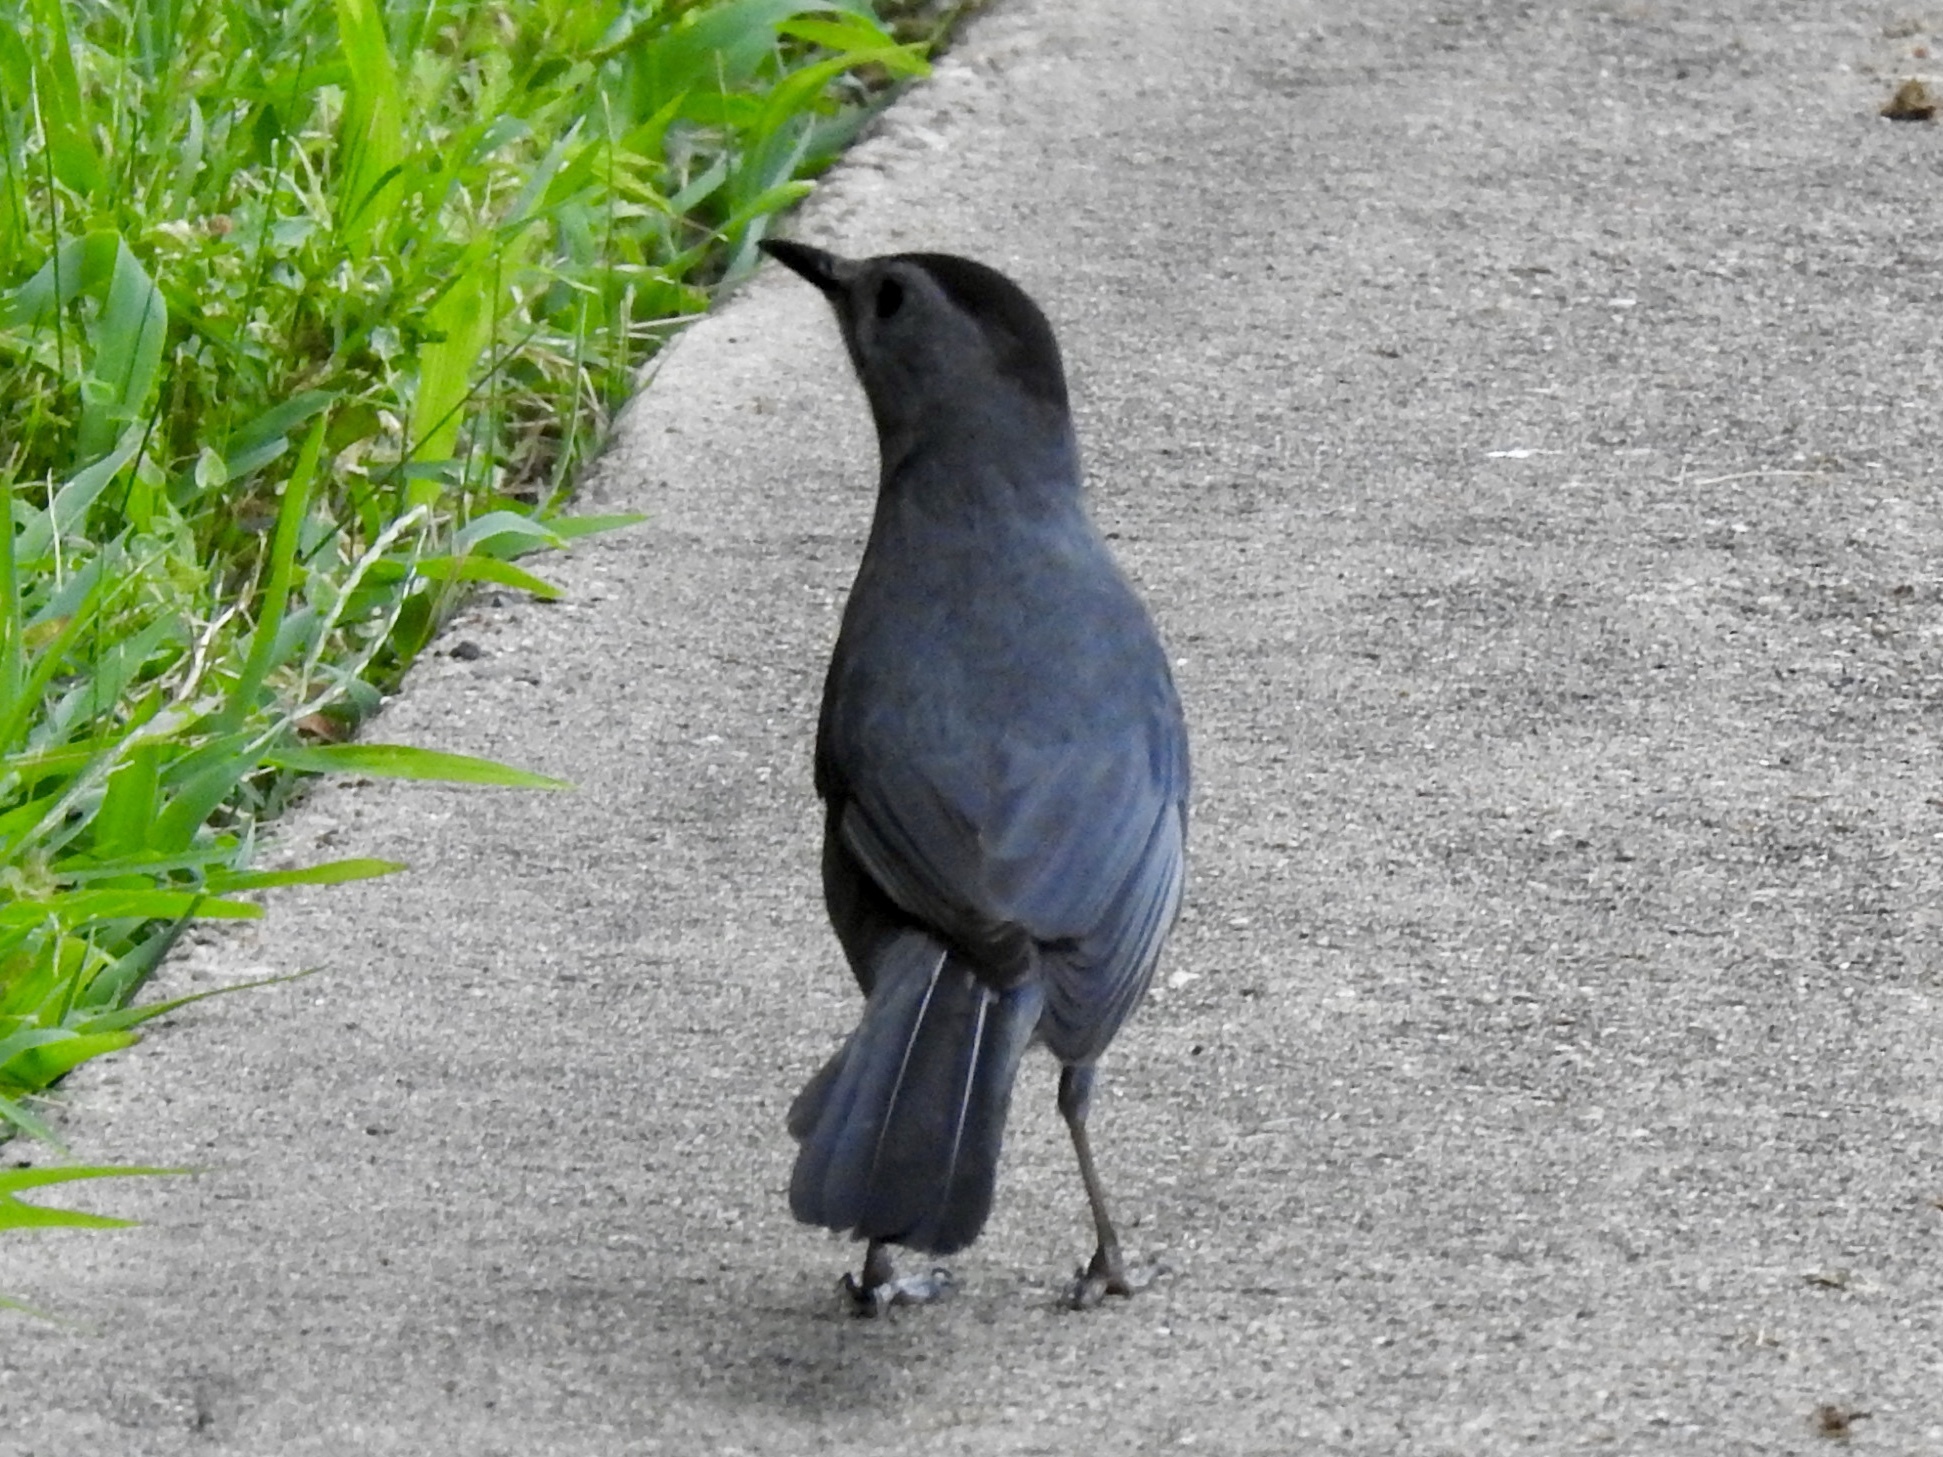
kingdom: Animalia
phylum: Chordata
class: Aves
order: Passeriformes
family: Mimidae
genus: Dumetella
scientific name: Dumetella carolinensis
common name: Gray catbird
